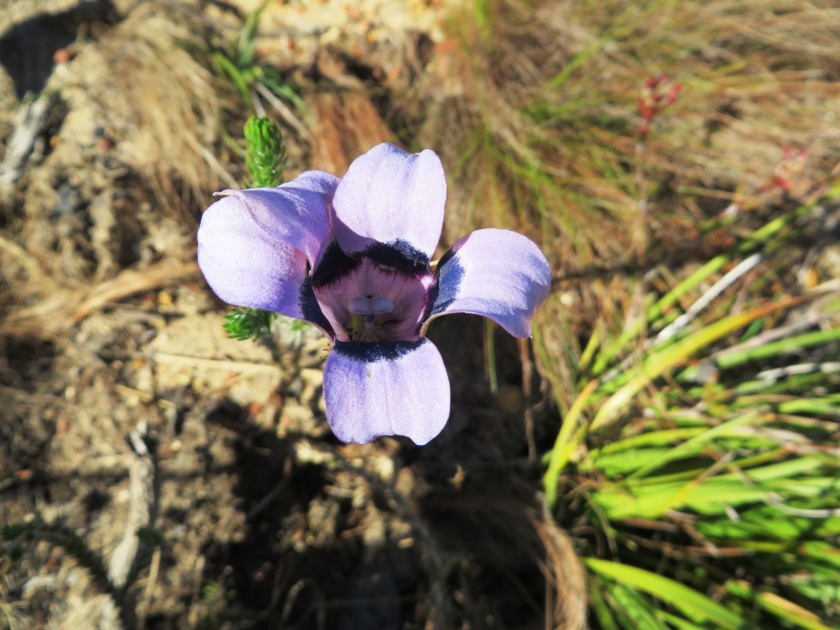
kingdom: Plantae
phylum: Tracheophyta
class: Magnoliopsida
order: Asterales
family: Campanulaceae
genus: Roella
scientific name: Roella incurva
